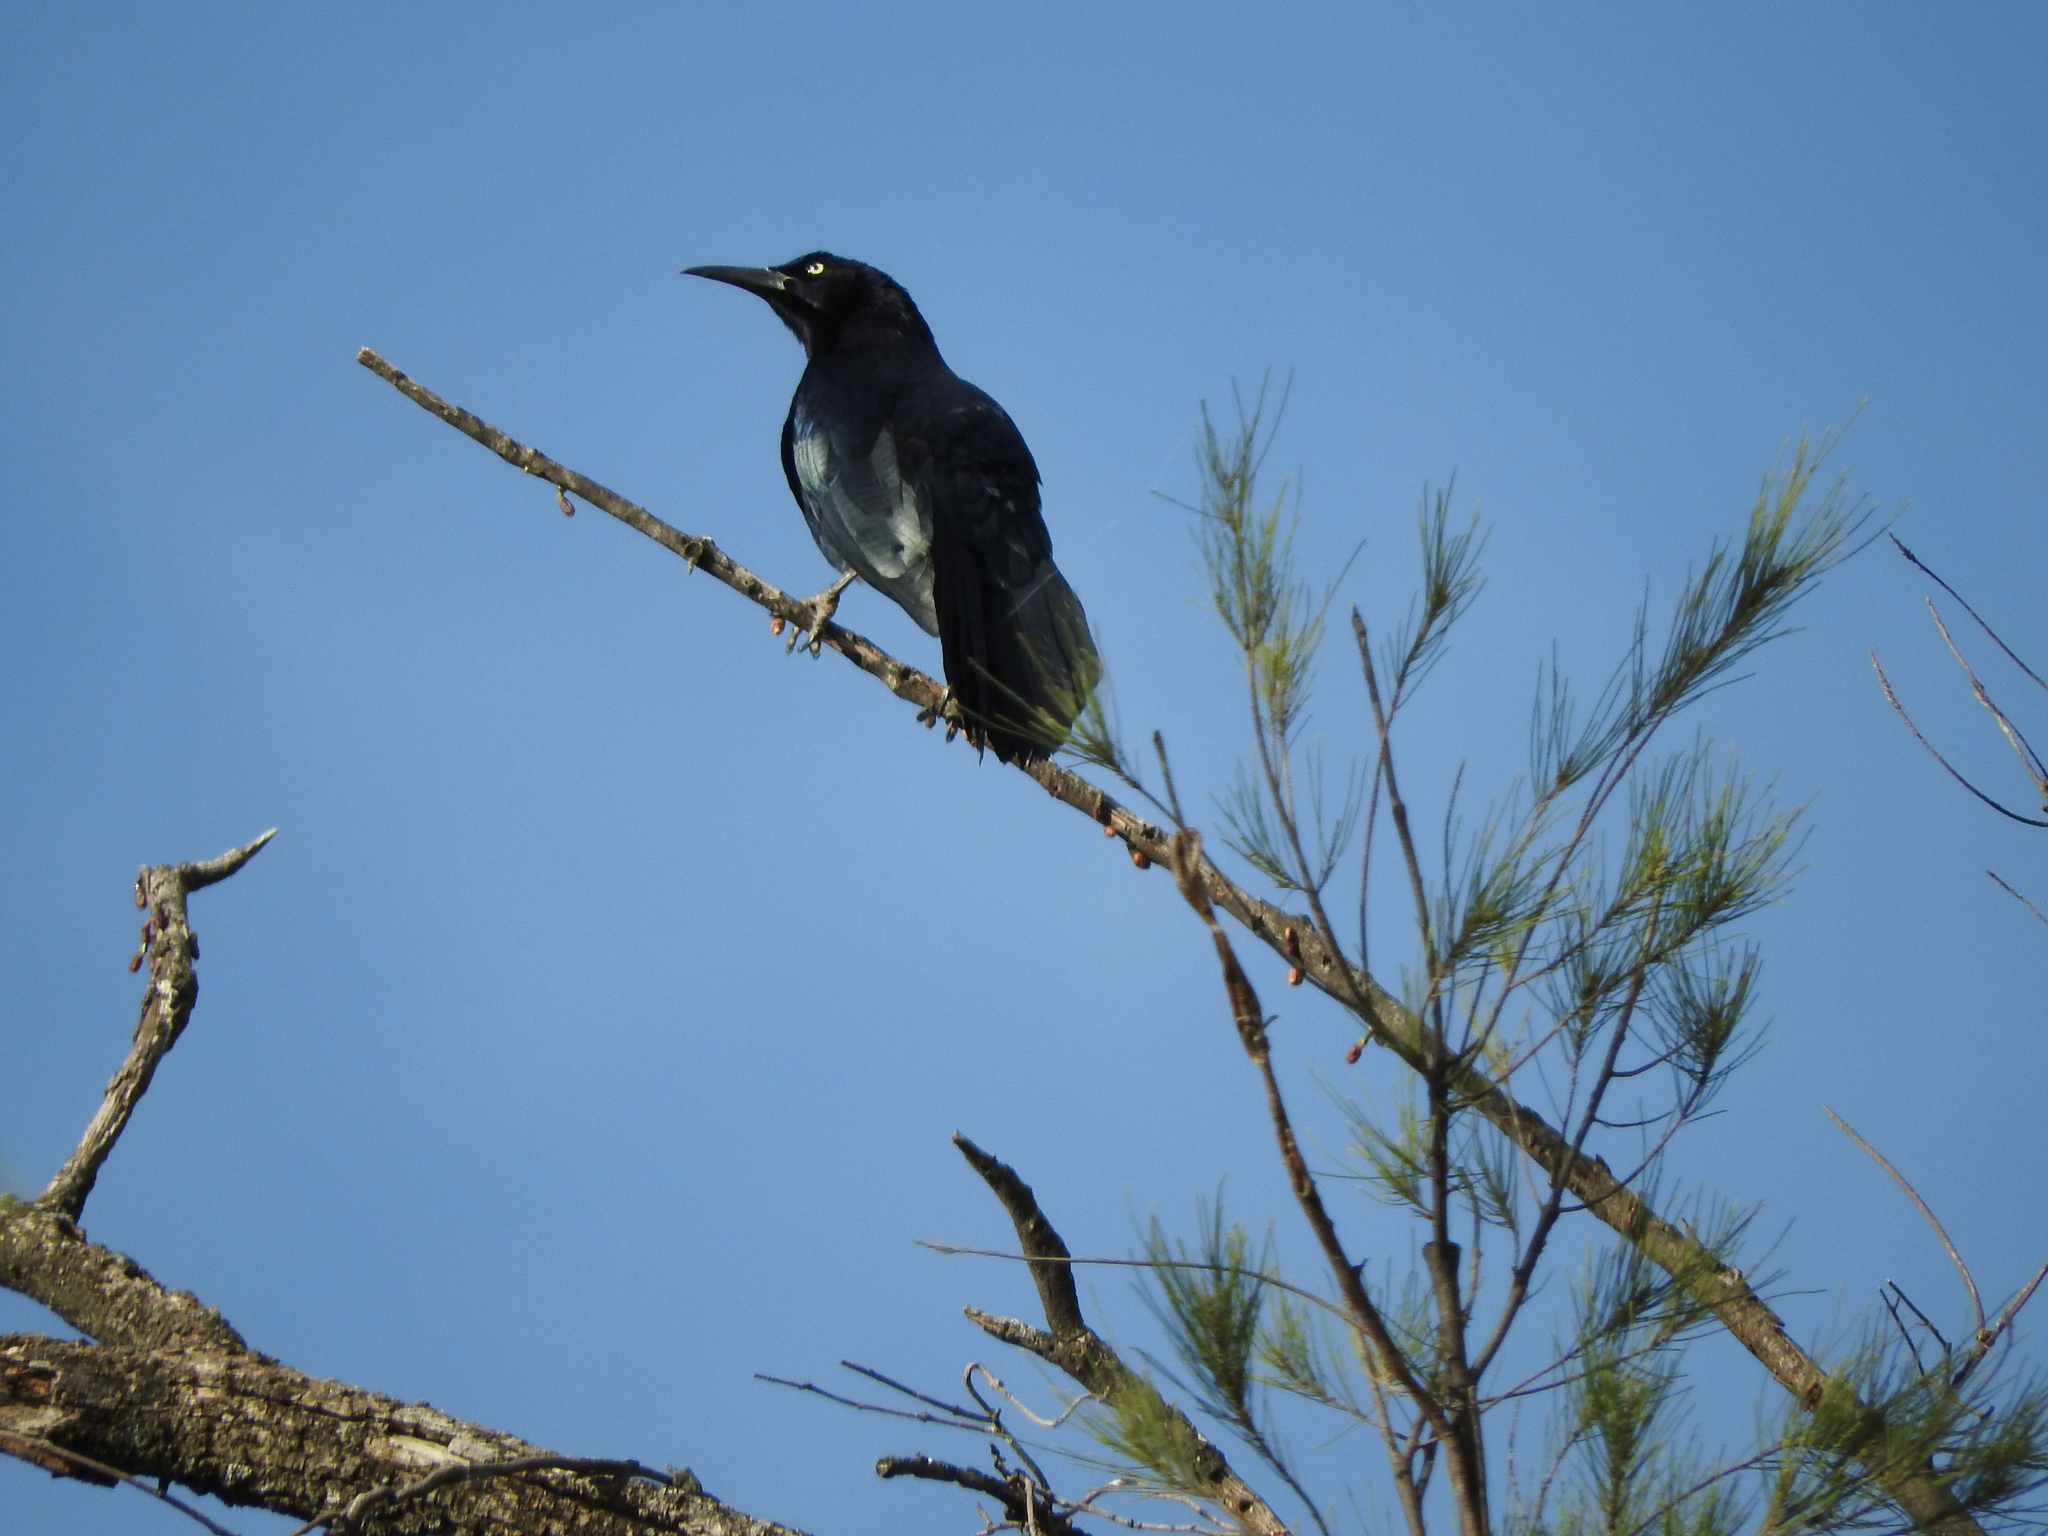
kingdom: Animalia
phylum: Chordata
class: Aves
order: Passeriformes
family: Icteridae
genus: Quiscalus
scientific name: Quiscalus mexicanus
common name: Great-tailed grackle
